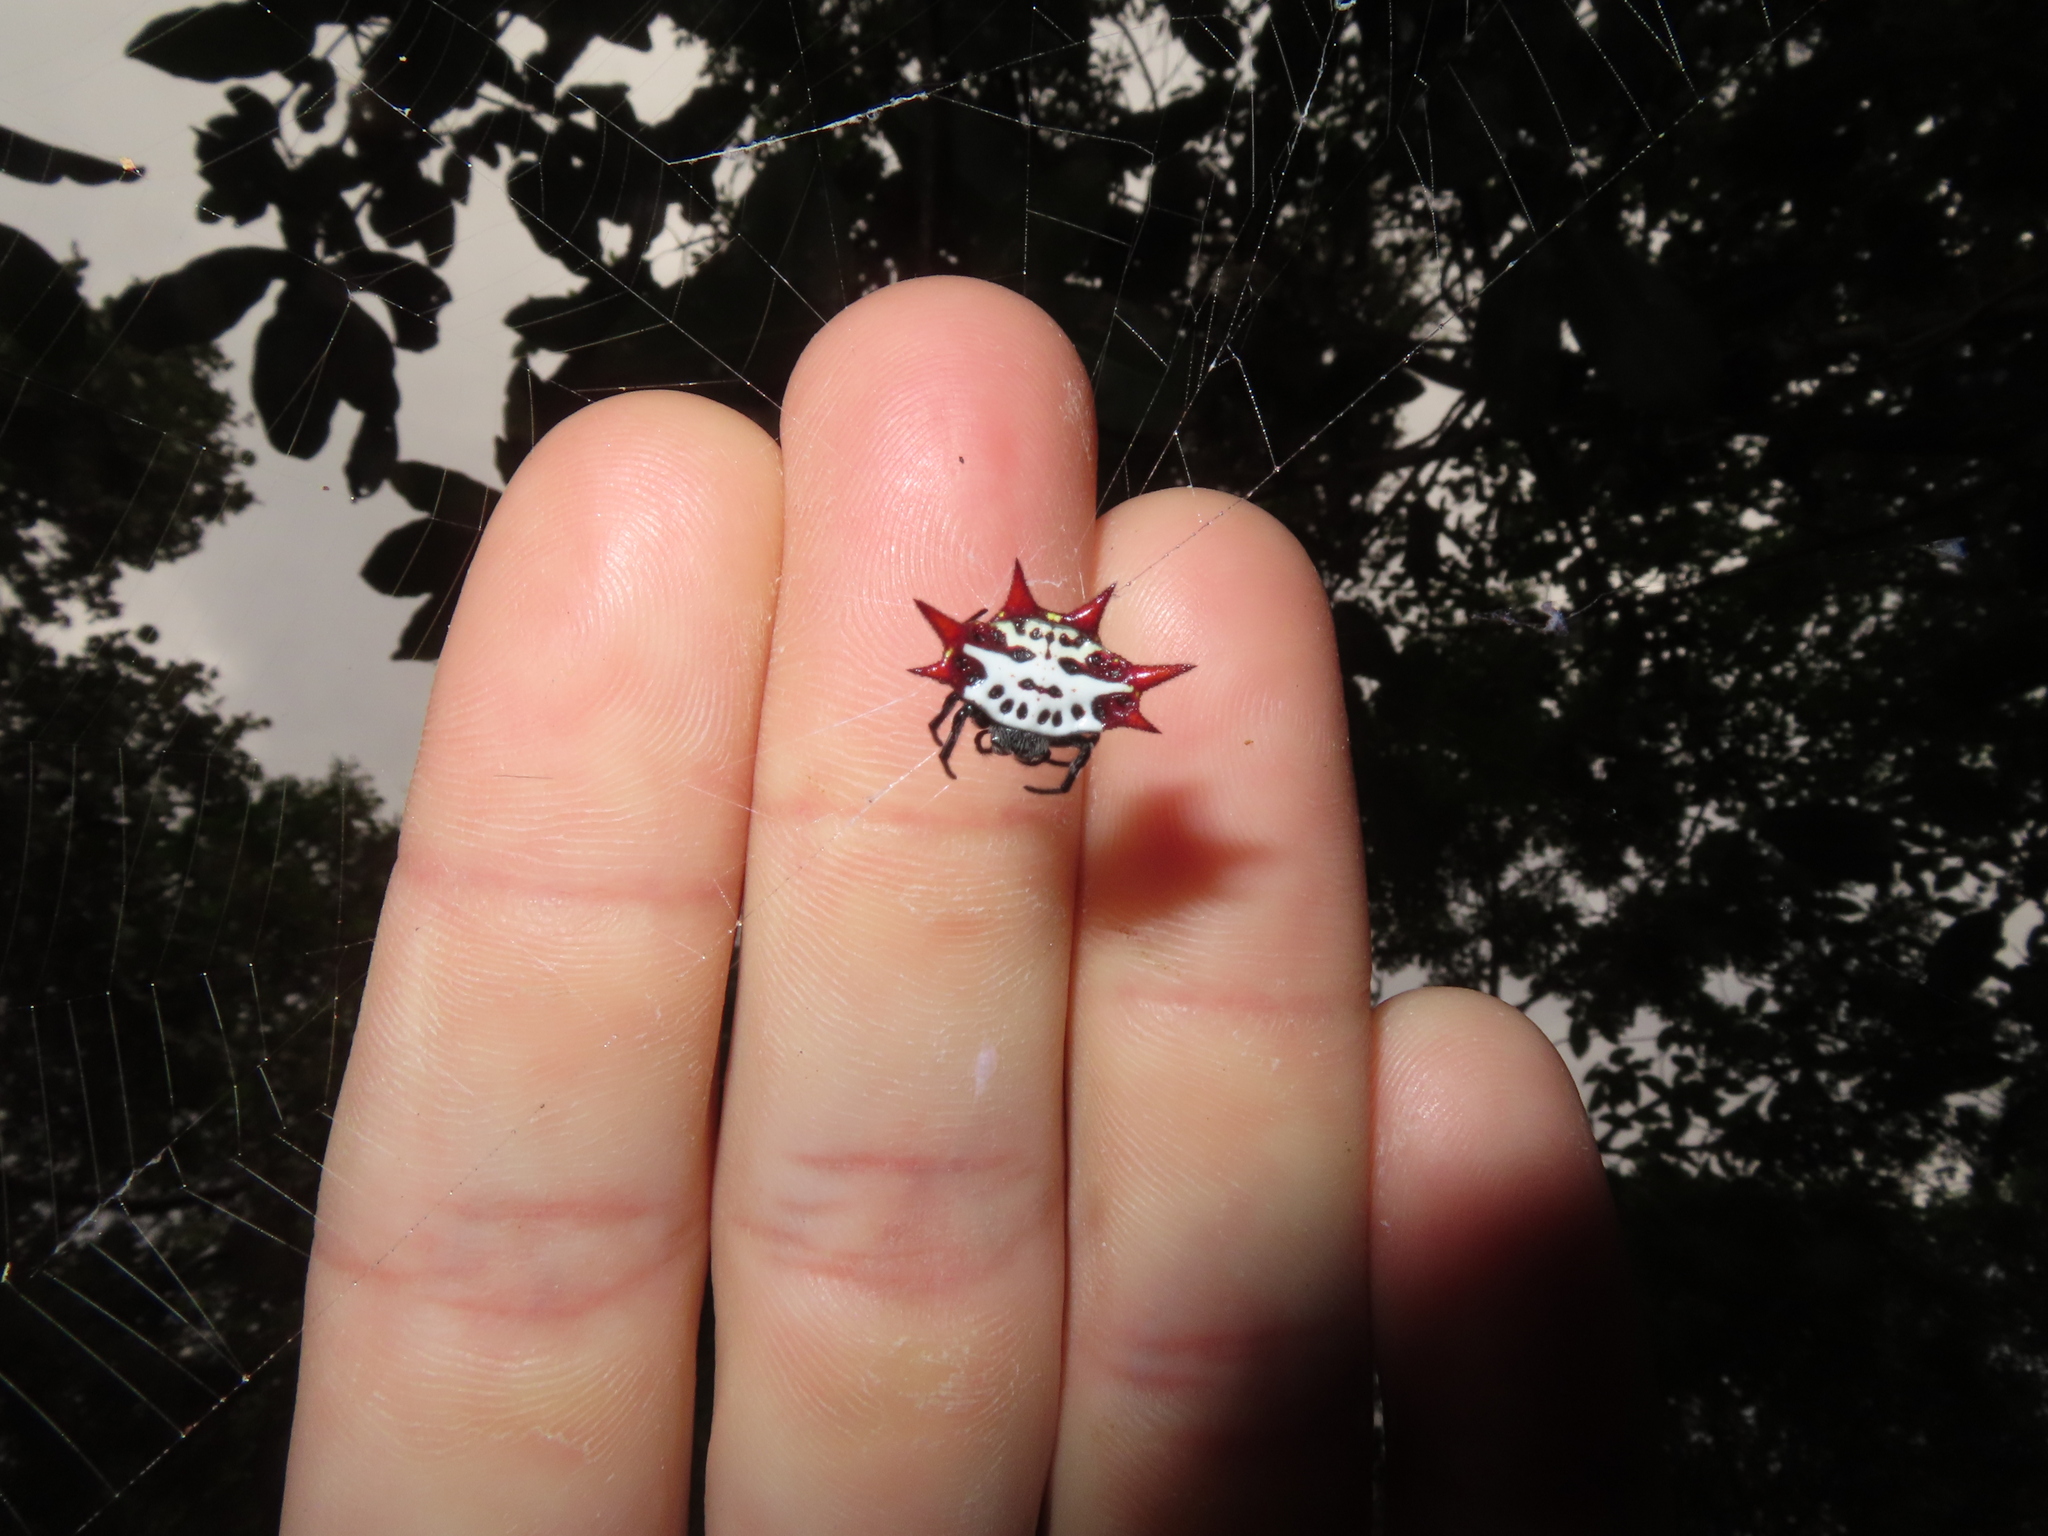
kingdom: Animalia
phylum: Arthropoda
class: Arachnida
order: Araneae
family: Araneidae
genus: Gasteracantha
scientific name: Gasteracantha cancriformis
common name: Orb weavers
